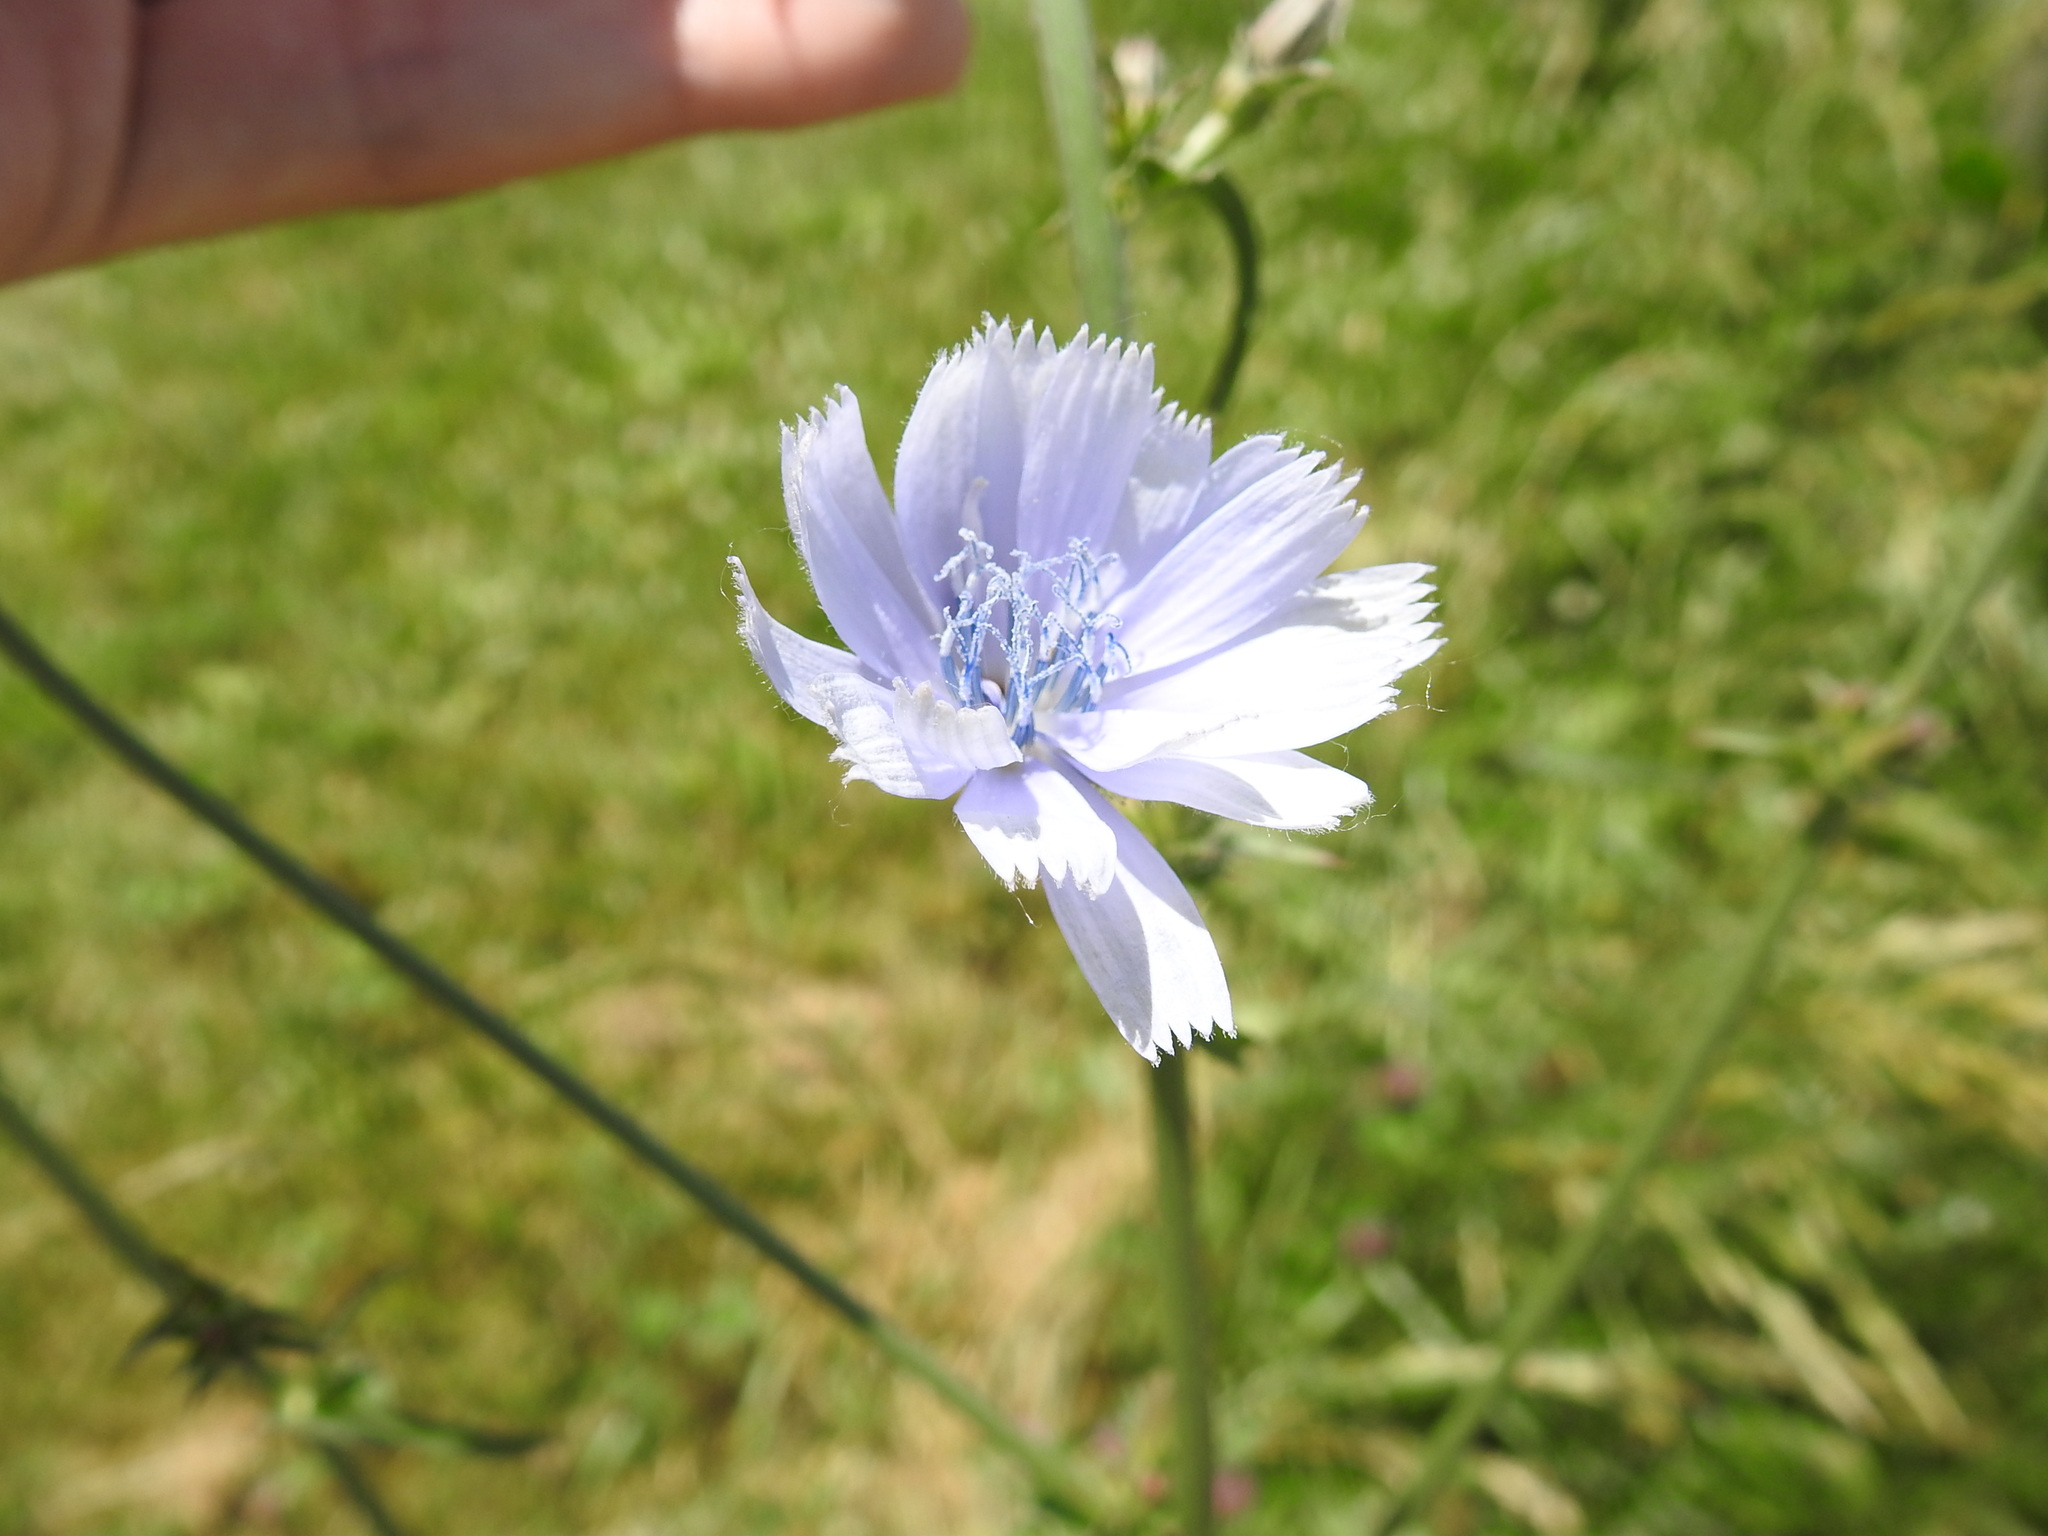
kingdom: Plantae
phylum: Tracheophyta
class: Magnoliopsida
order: Asterales
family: Asteraceae
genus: Cichorium
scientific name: Cichorium intybus
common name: Chicory
